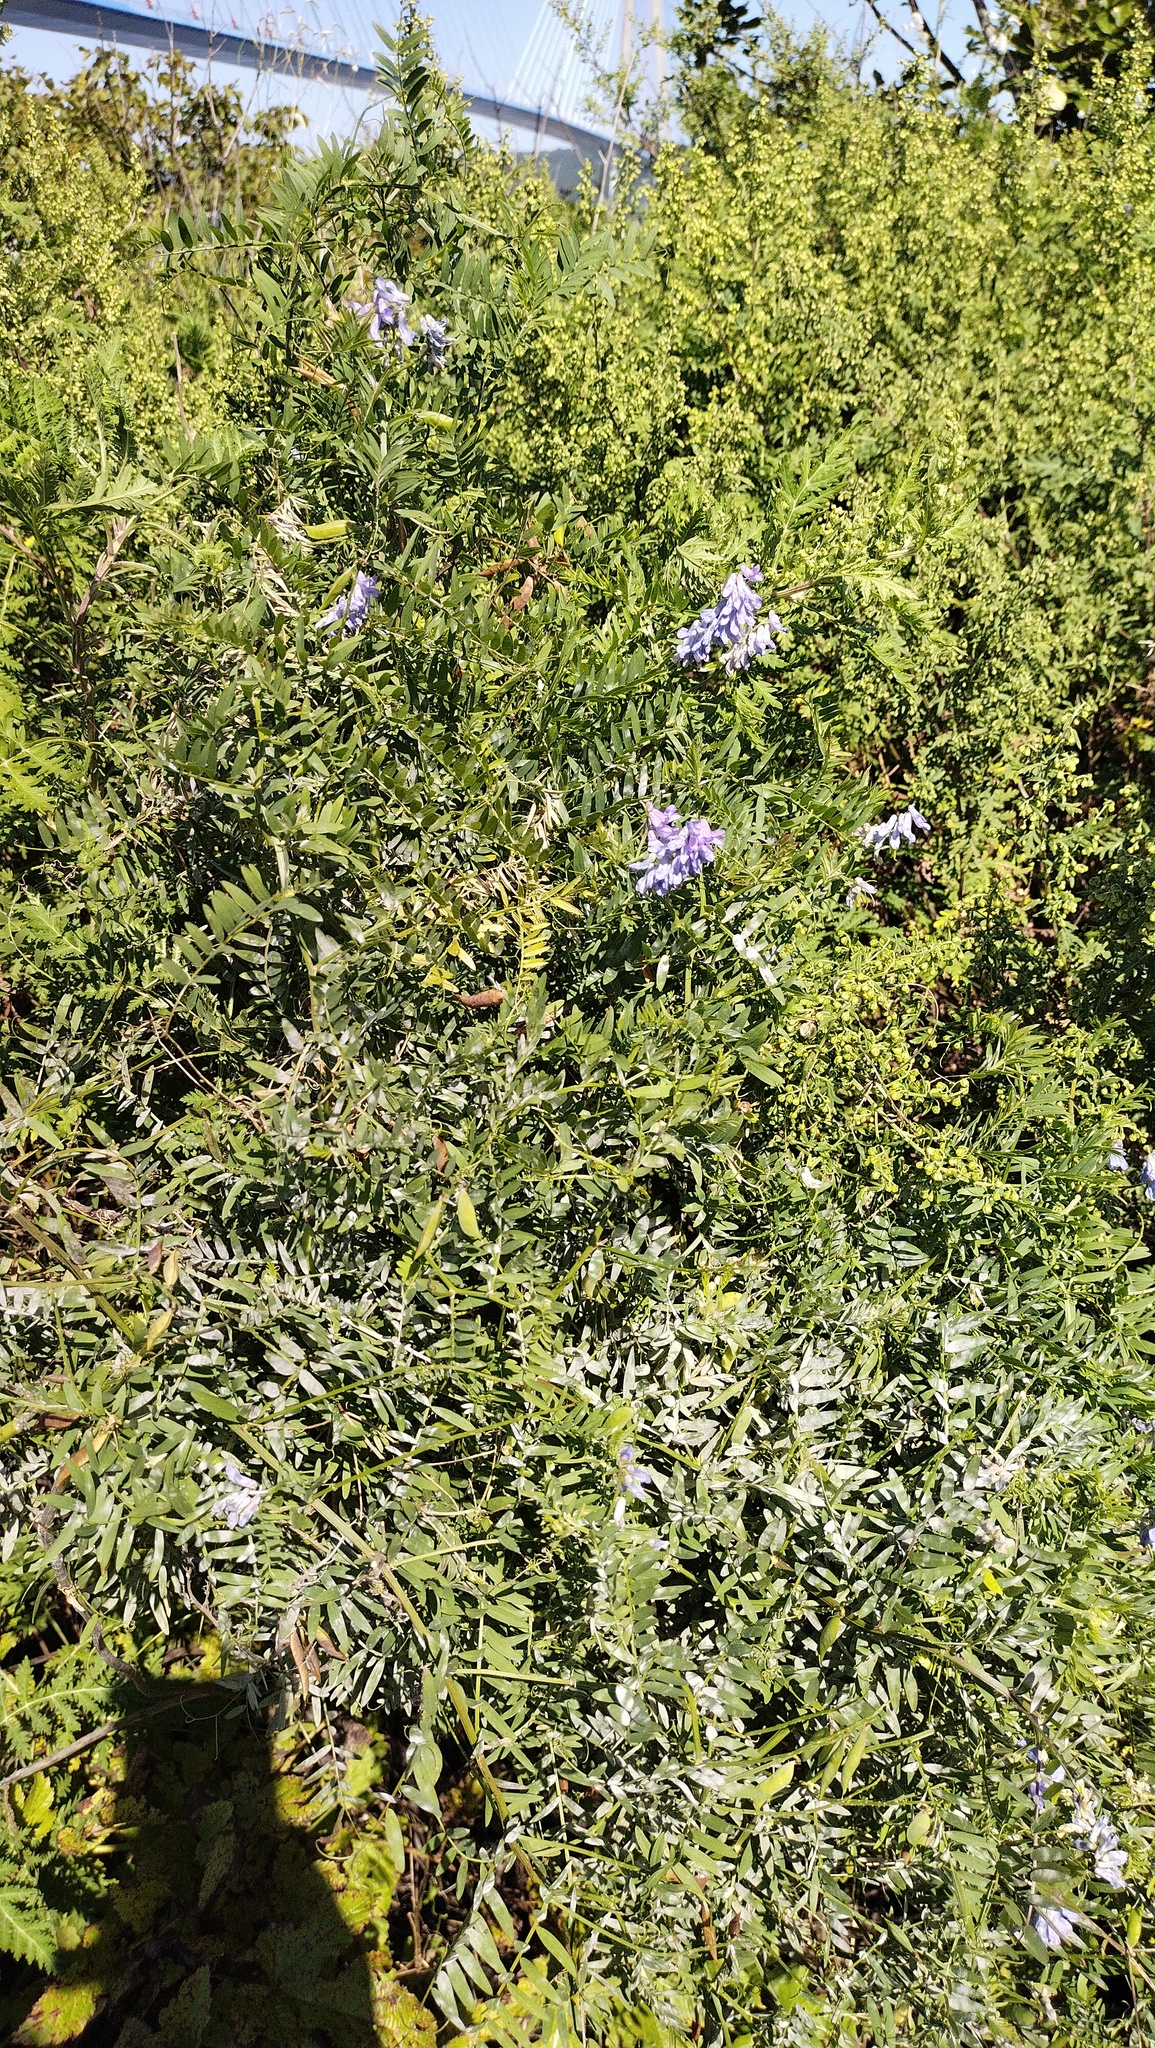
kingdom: Plantae
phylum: Tracheophyta
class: Magnoliopsida
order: Fabales
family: Fabaceae
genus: Vicia
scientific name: Vicia cracca
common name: Bird vetch
